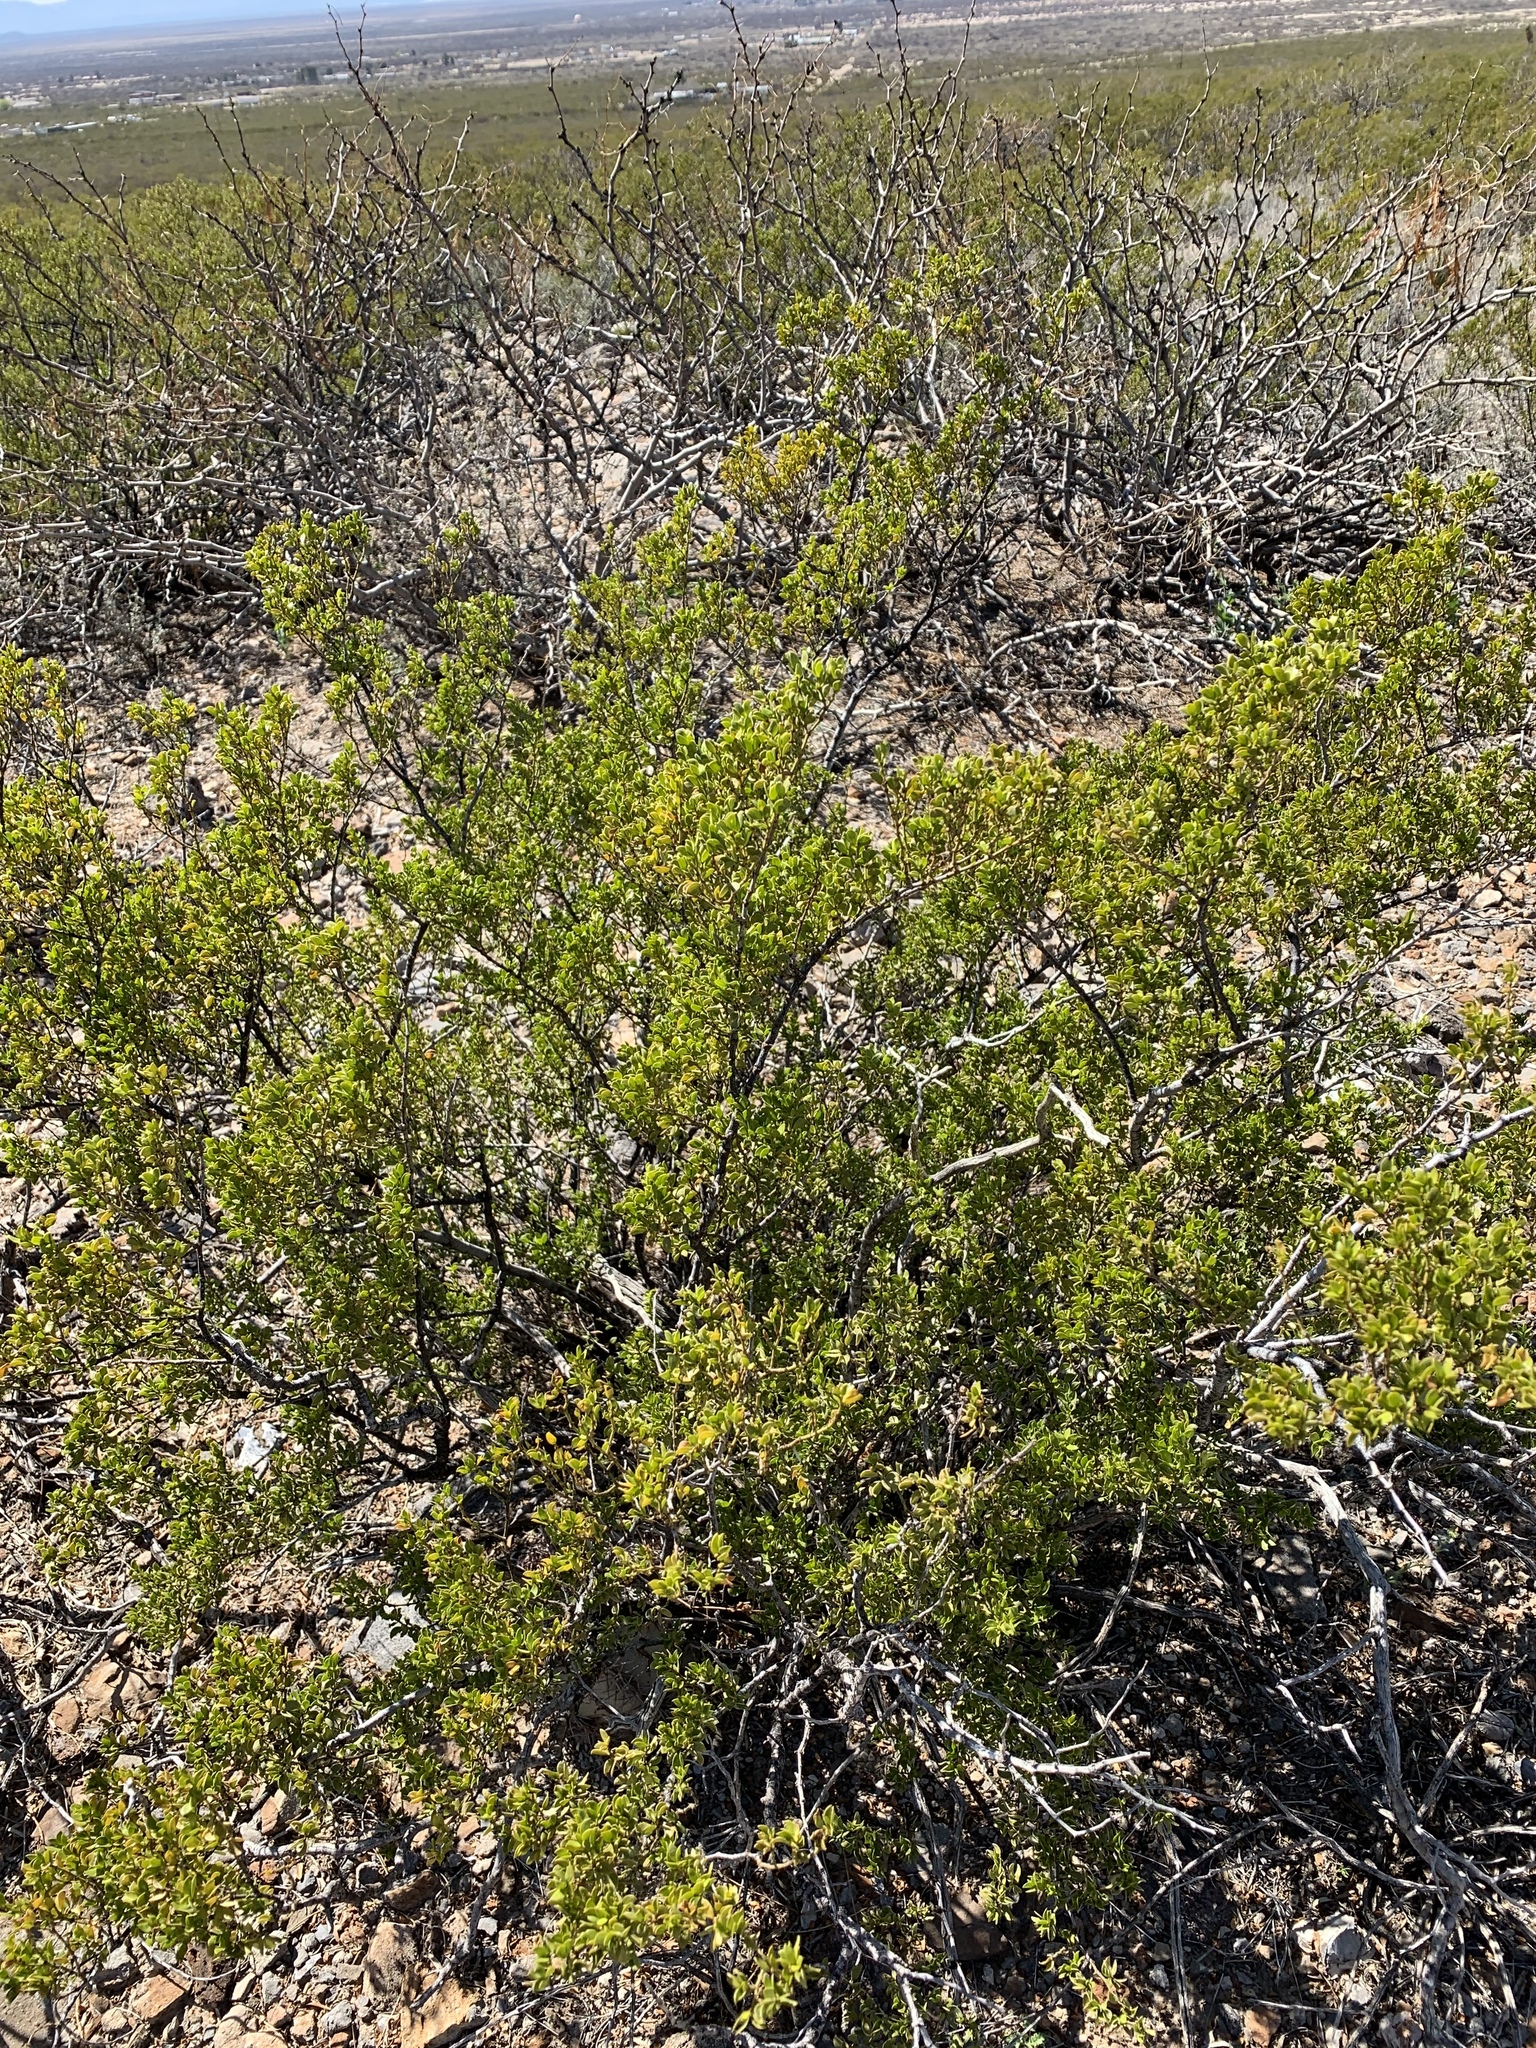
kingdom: Plantae
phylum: Tracheophyta
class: Magnoliopsida
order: Zygophyllales
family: Zygophyllaceae
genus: Larrea
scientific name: Larrea tridentata
